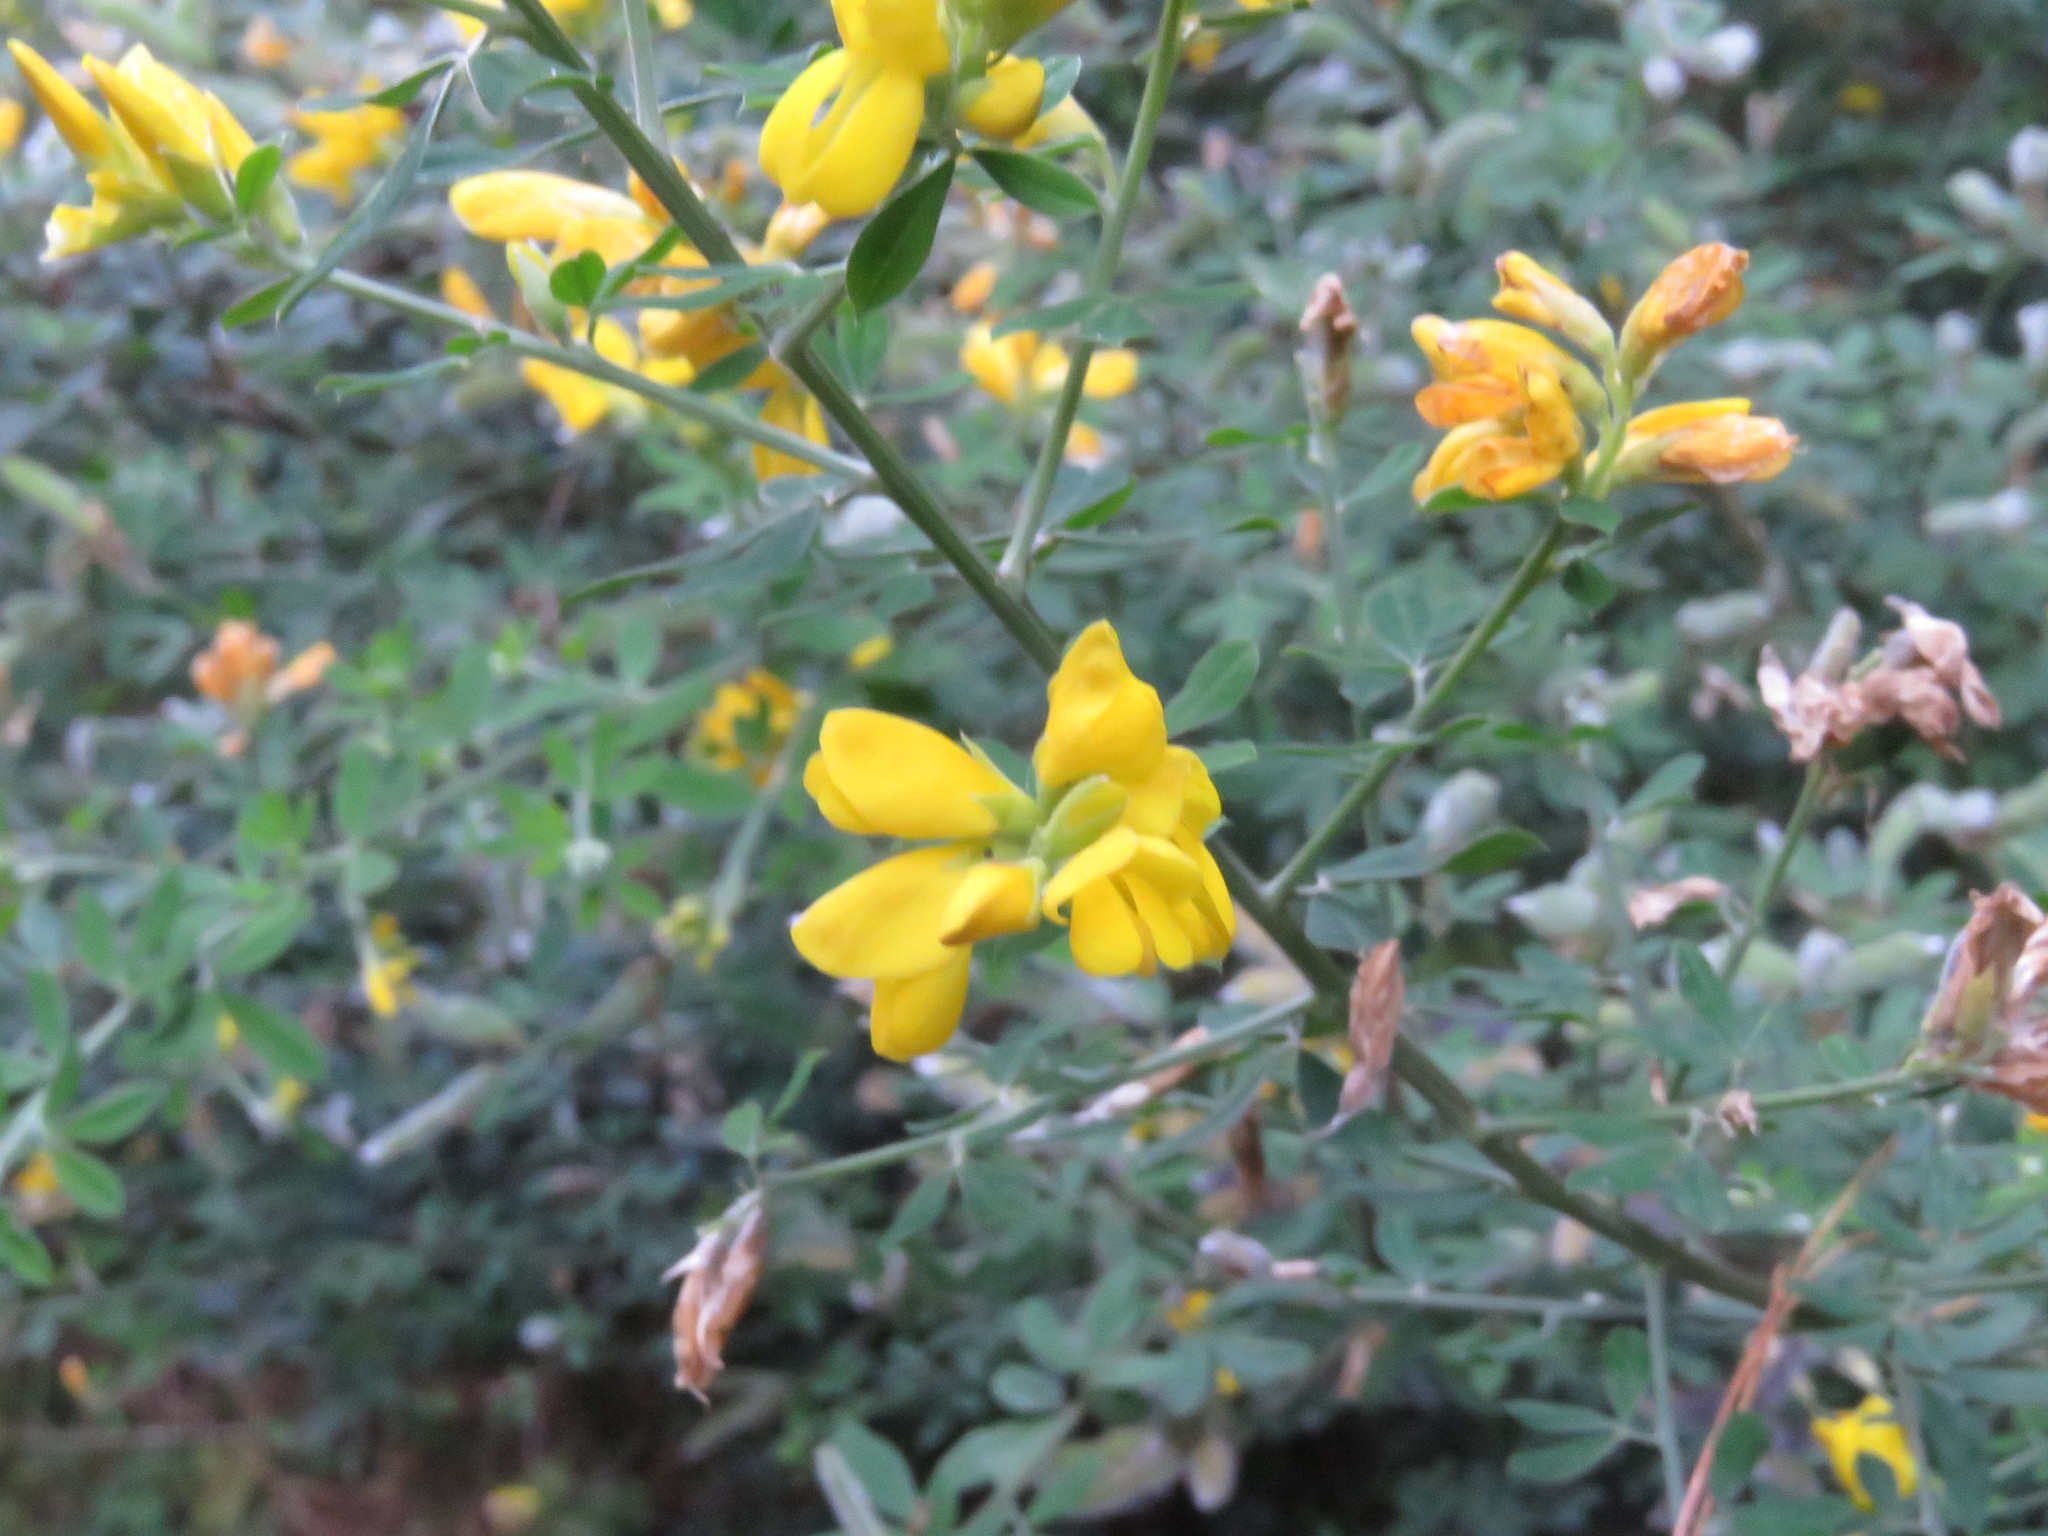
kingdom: Plantae
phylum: Tracheophyta
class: Magnoliopsida
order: Fabales
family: Fabaceae
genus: Genista
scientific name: Genista monspessulana
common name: Montpellier broom
